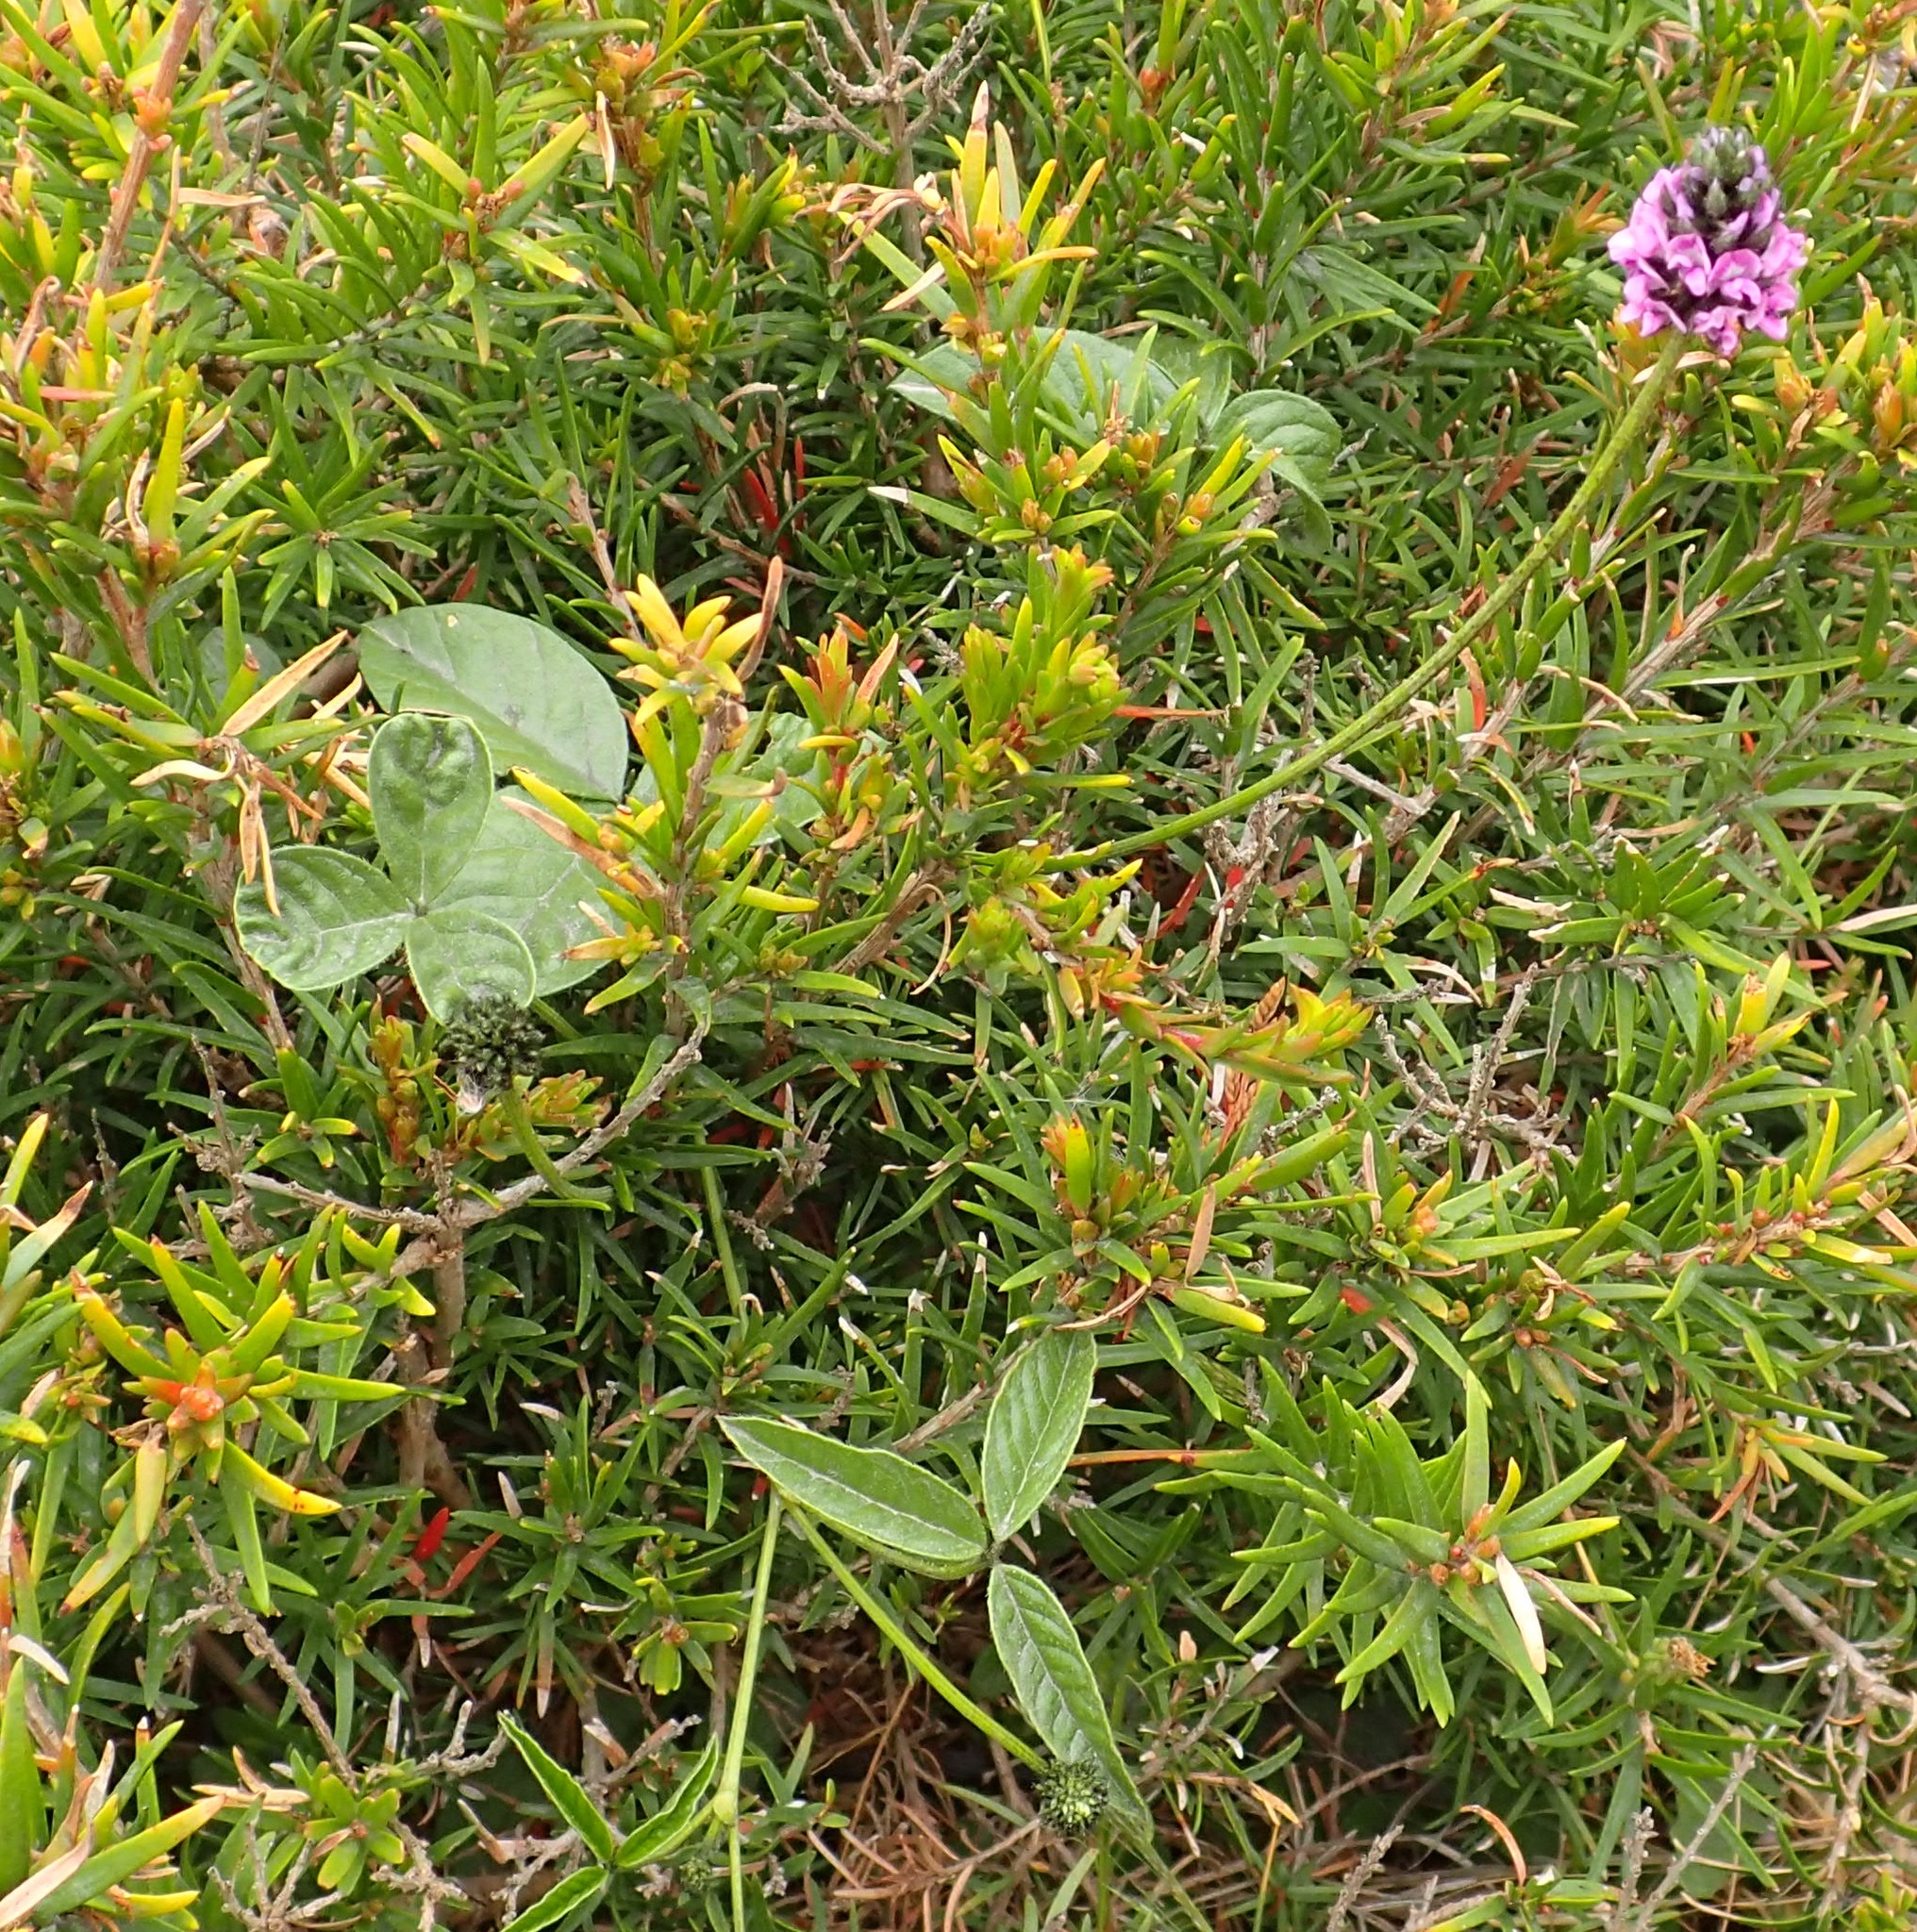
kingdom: Plantae
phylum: Tracheophyta
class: Magnoliopsida
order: Fabales
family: Fabaceae
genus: Cullen
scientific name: Cullen microcephalum
